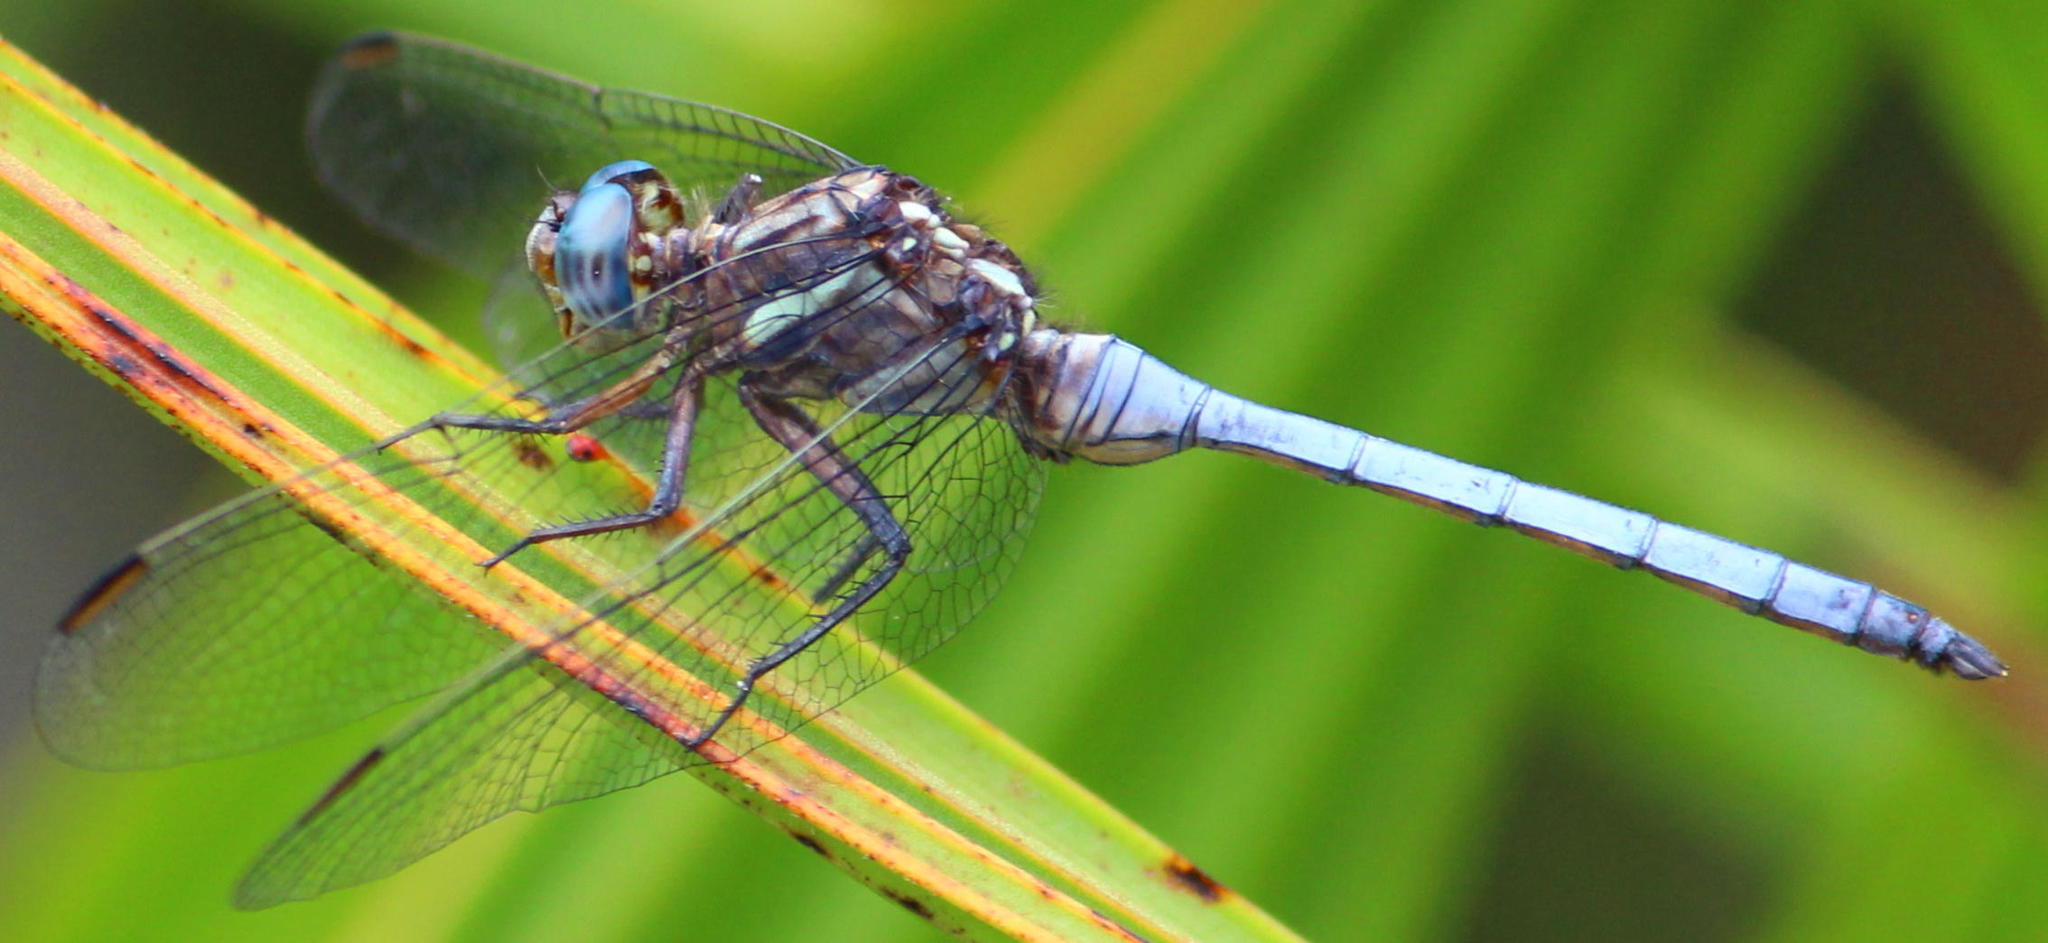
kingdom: Animalia
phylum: Arthropoda
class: Insecta
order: Odonata
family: Libellulidae
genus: Orthetrum
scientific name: Orthetrum julia
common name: Julia skimmer
